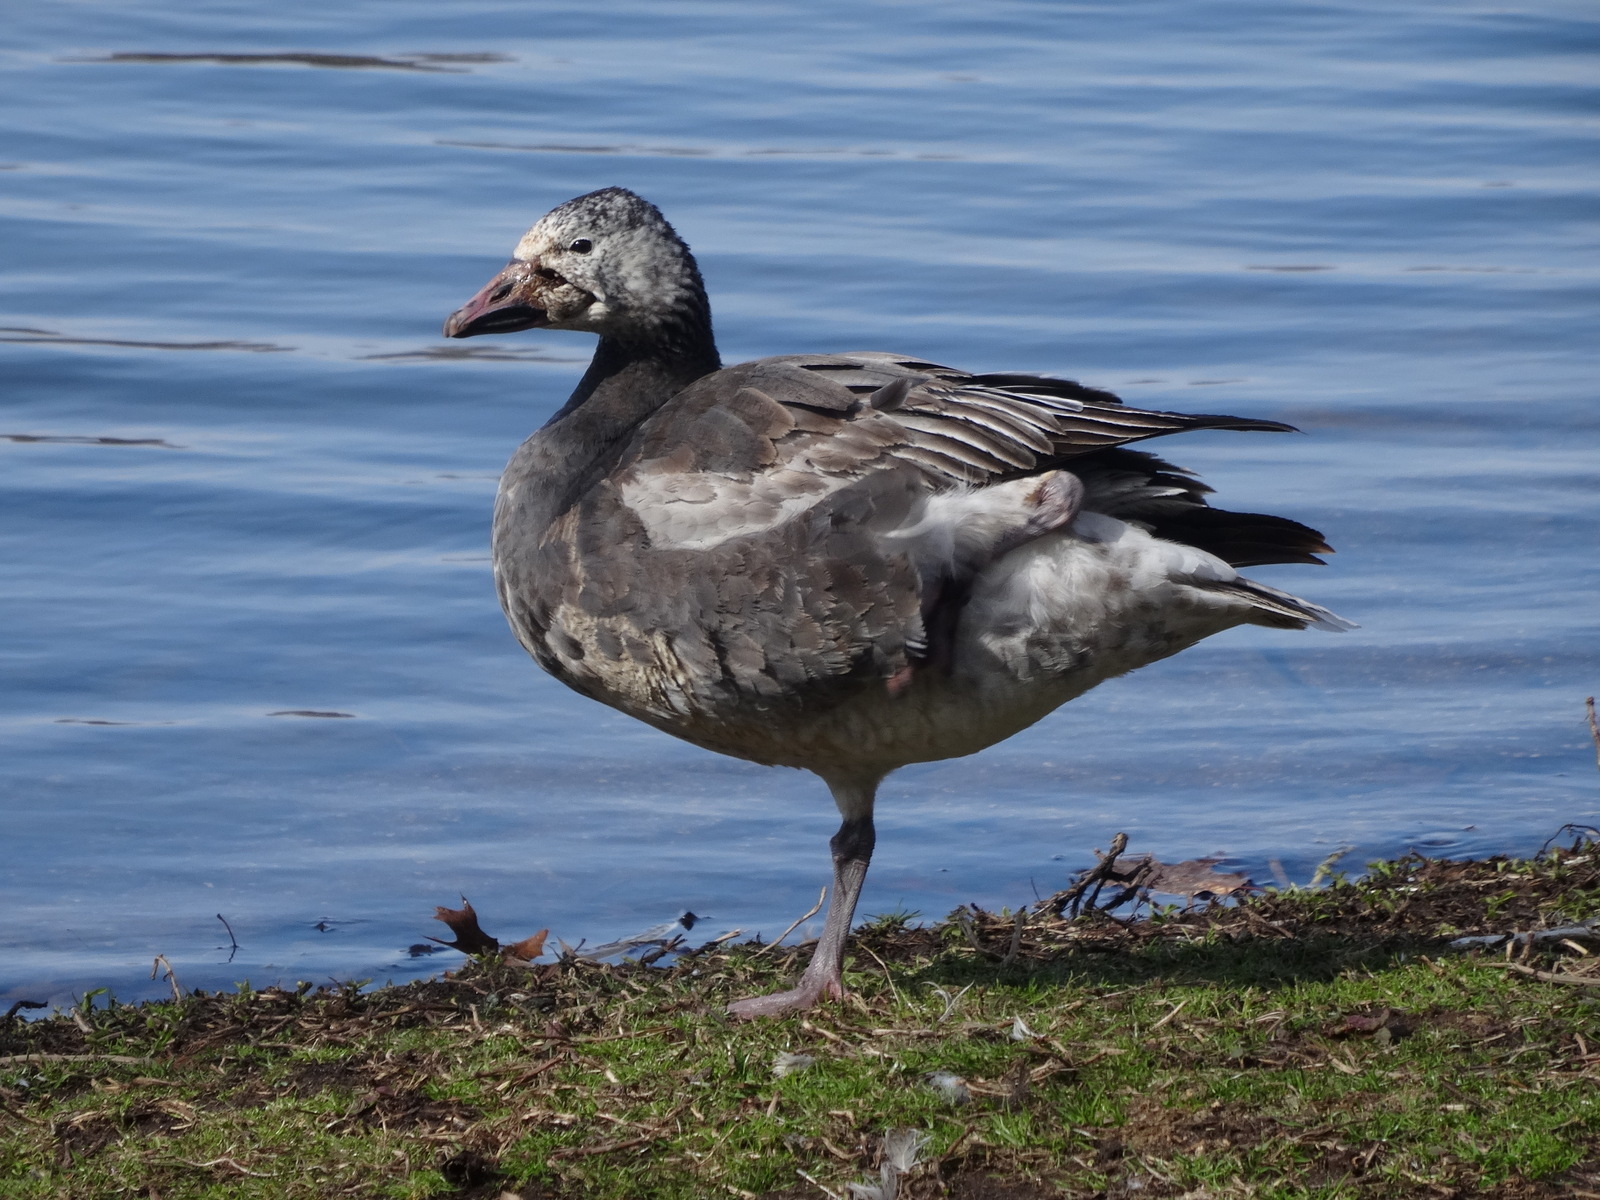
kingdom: Animalia
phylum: Chordata
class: Aves
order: Anseriformes
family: Anatidae
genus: Anser
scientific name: Anser caerulescens
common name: Snow goose
